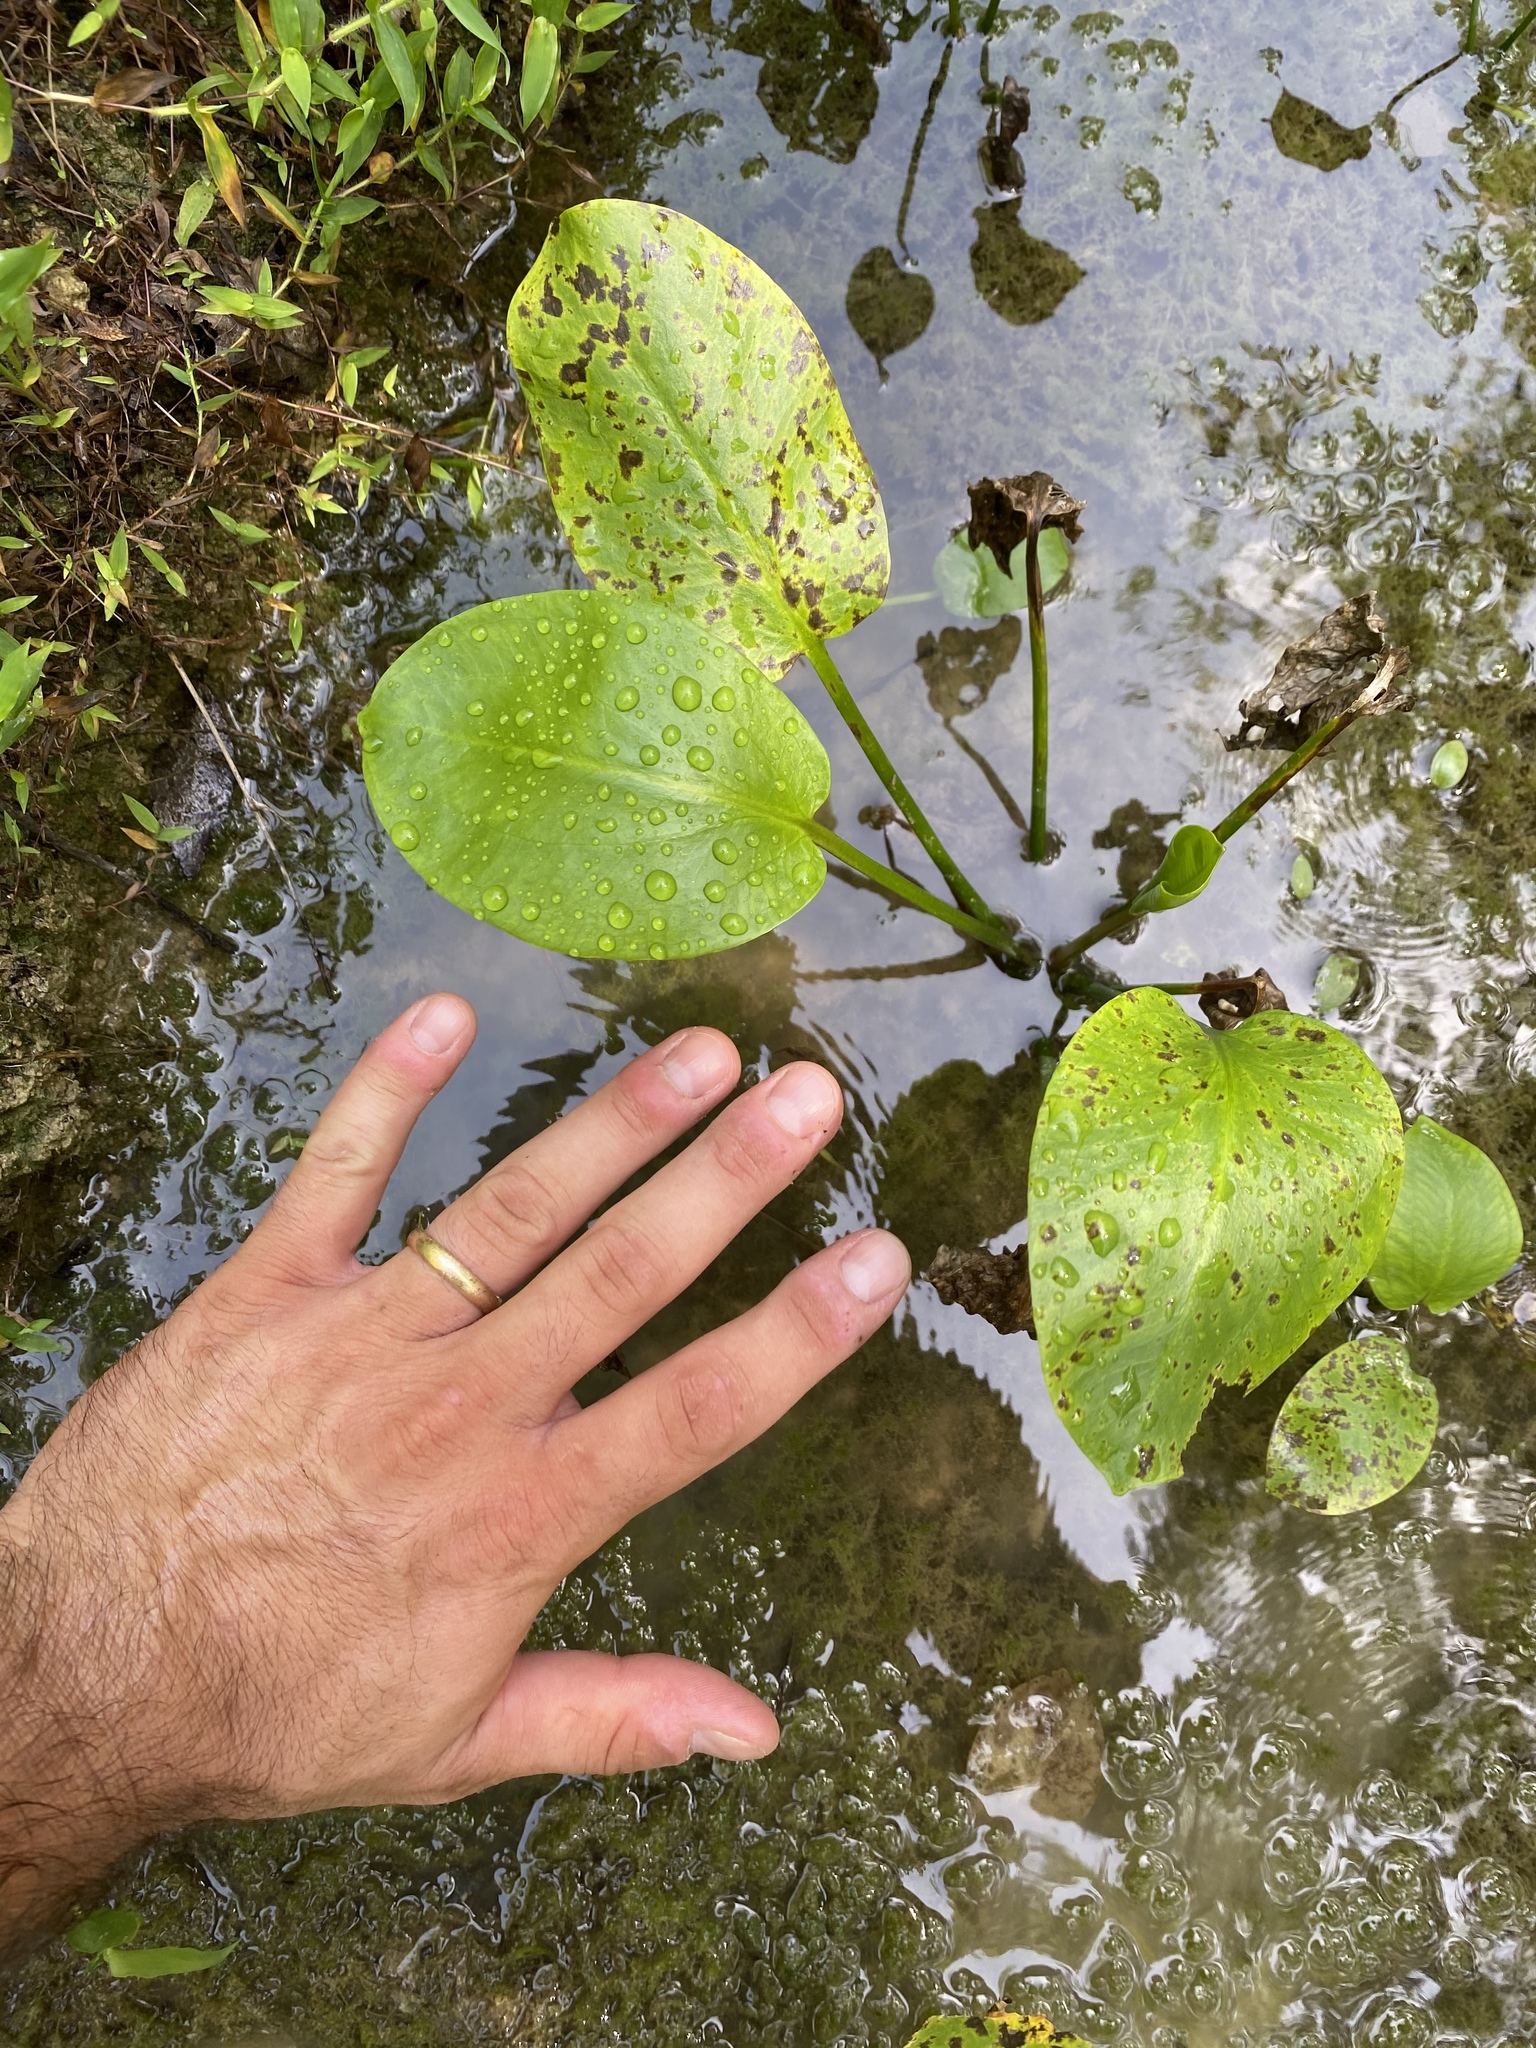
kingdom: Plantae
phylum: Tracheophyta
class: Liliopsida
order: Alismatales
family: Alismataceae
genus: Alisma
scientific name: Alisma subcordatum
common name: Southern water-plantain
